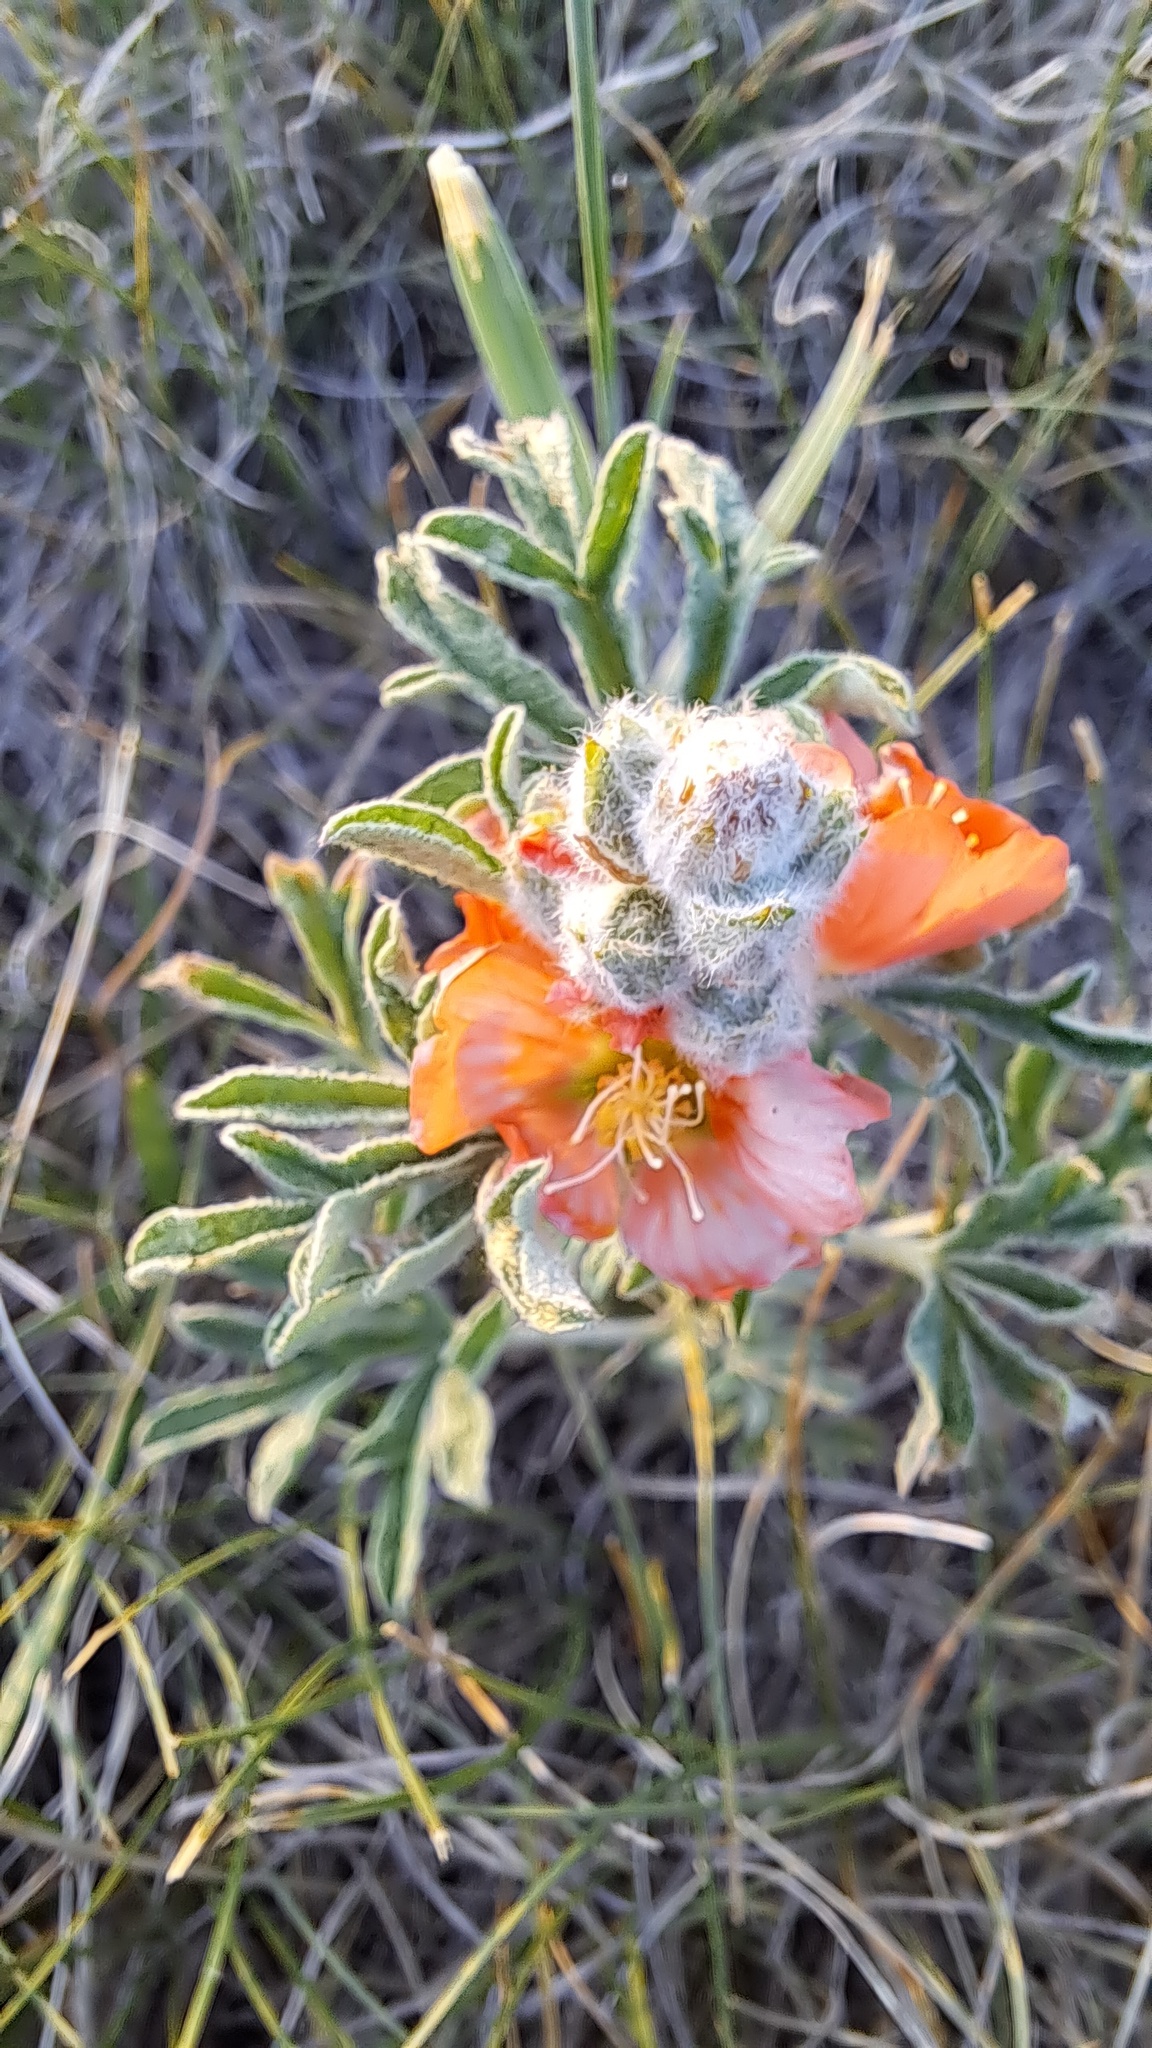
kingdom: Plantae
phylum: Tracheophyta
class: Magnoliopsida
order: Malvales
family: Malvaceae
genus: Sphaeralcea
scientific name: Sphaeralcea coccinea
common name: Moss-rose
